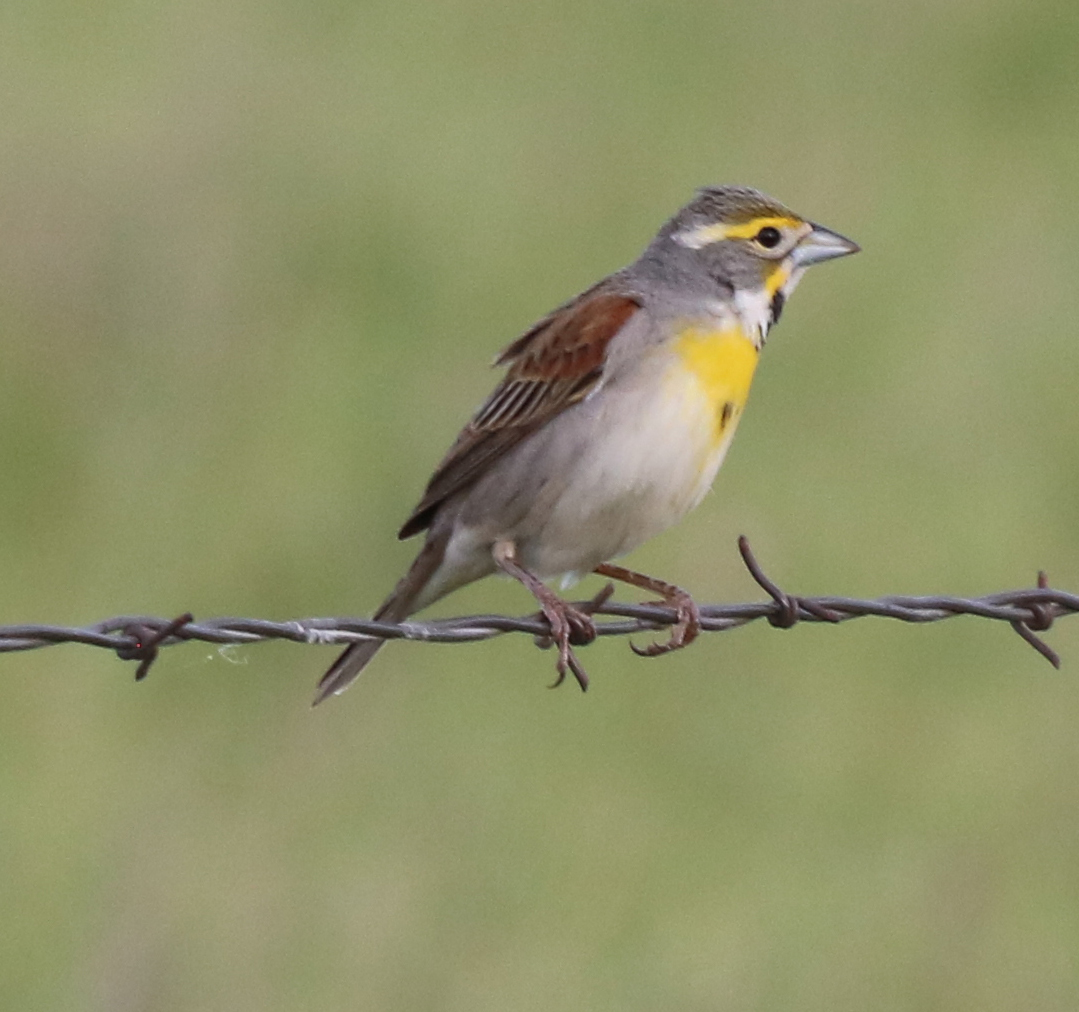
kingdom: Animalia
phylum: Chordata
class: Aves
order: Passeriformes
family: Cardinalidae
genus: Spiza
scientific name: Spiza americana
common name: Dickcissel
